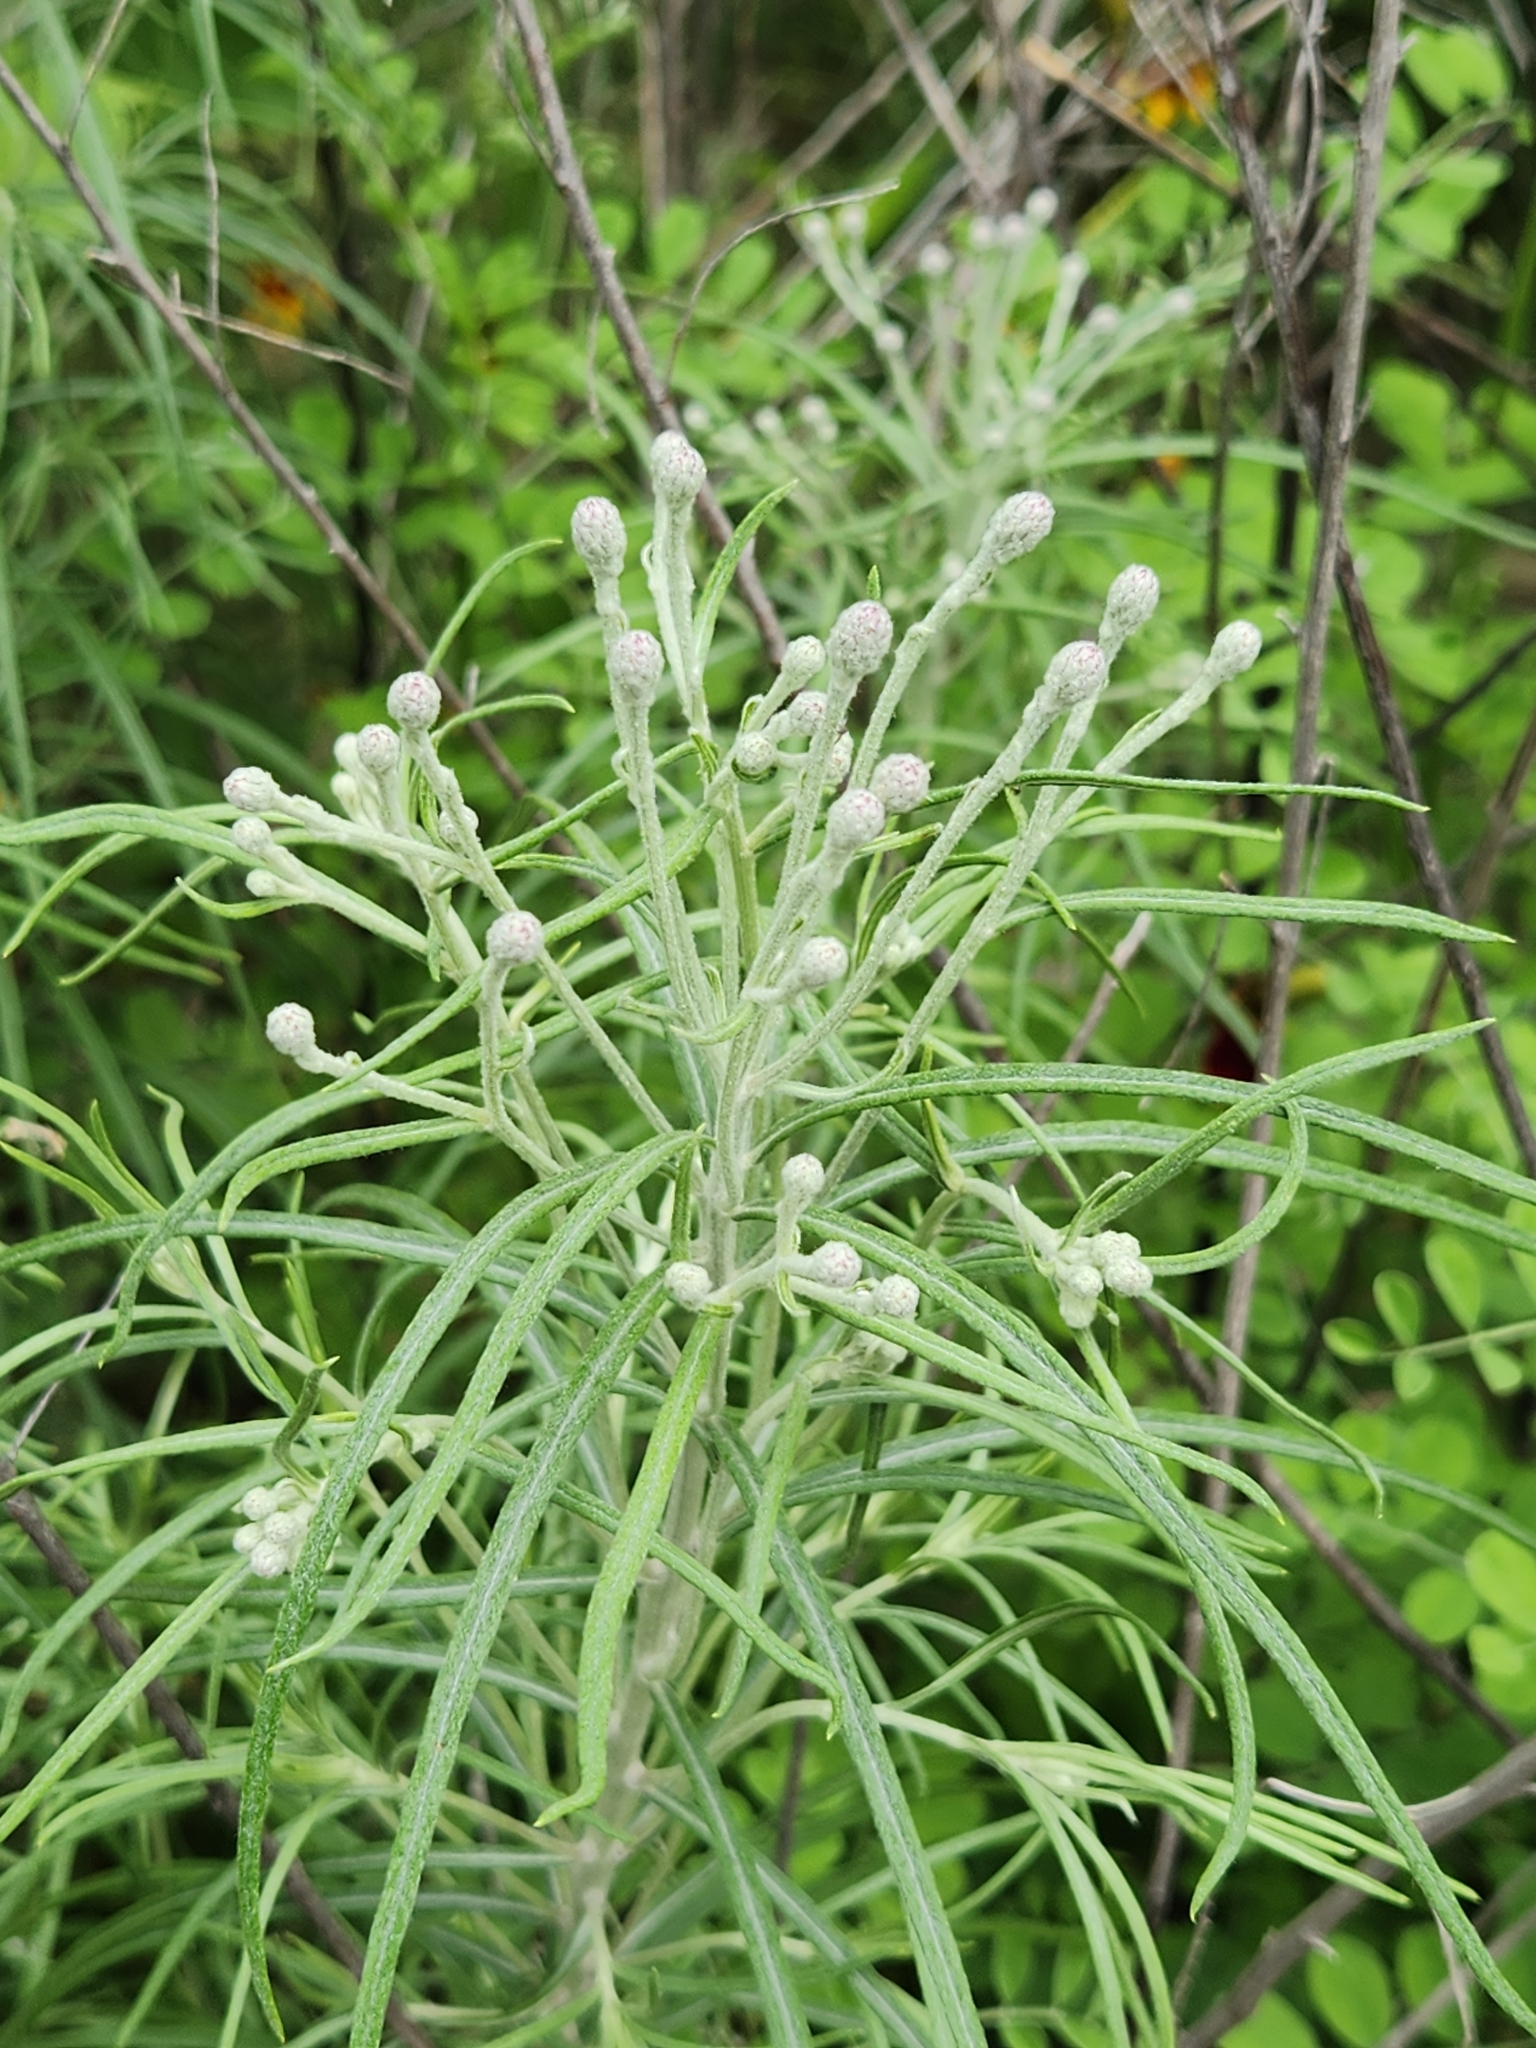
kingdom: Plantae
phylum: Tracheophyta
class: Magnoliopsida
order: Asterales
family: Asteraceae
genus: Vernonia
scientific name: Vernonia lindheimeri
